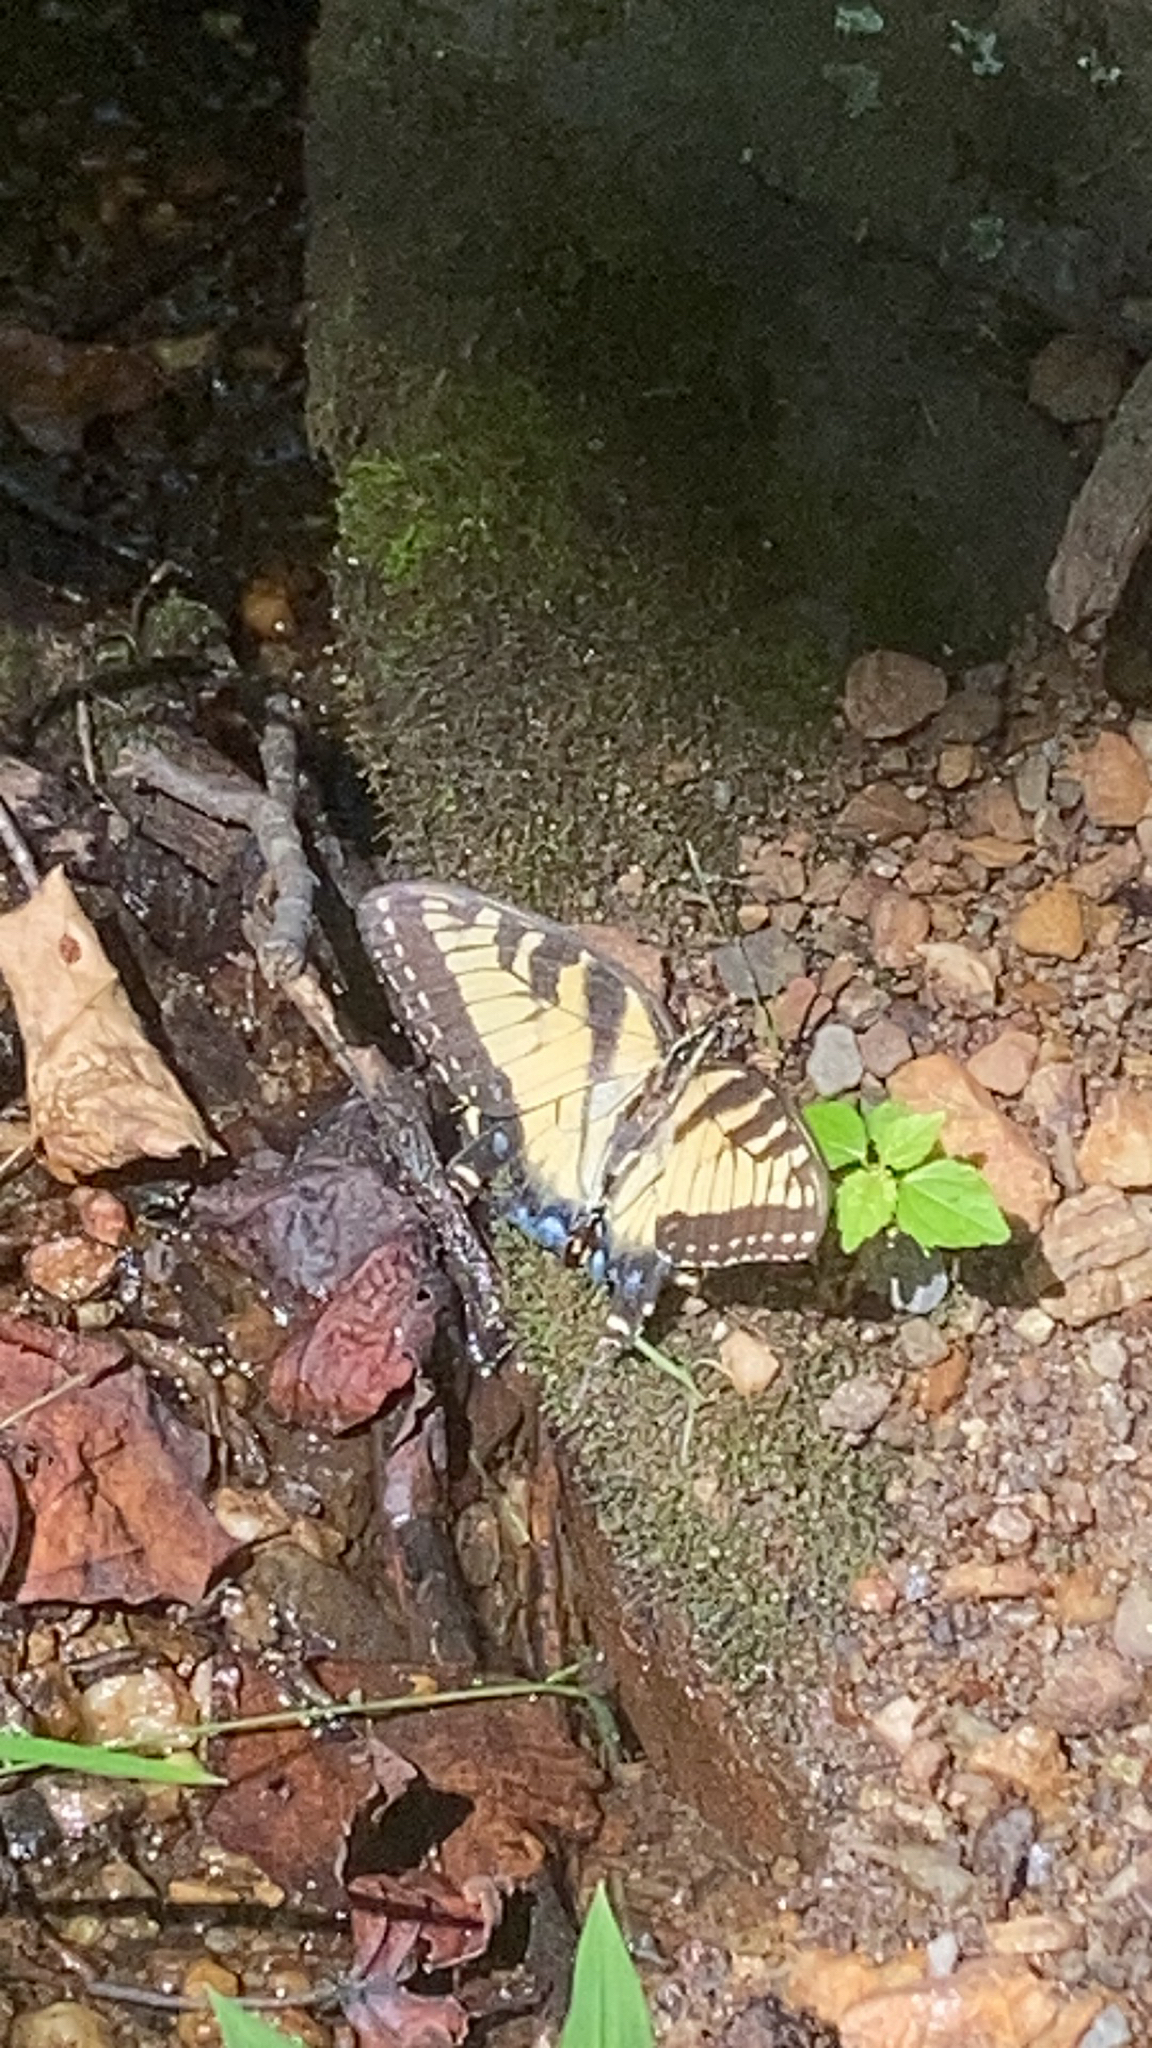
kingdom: Animalia
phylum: Arthropoda
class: Insecta
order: Lepidoptera
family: Papilionidae
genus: Papilio
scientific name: Papilio glaucus
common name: Tiger swallowtail
